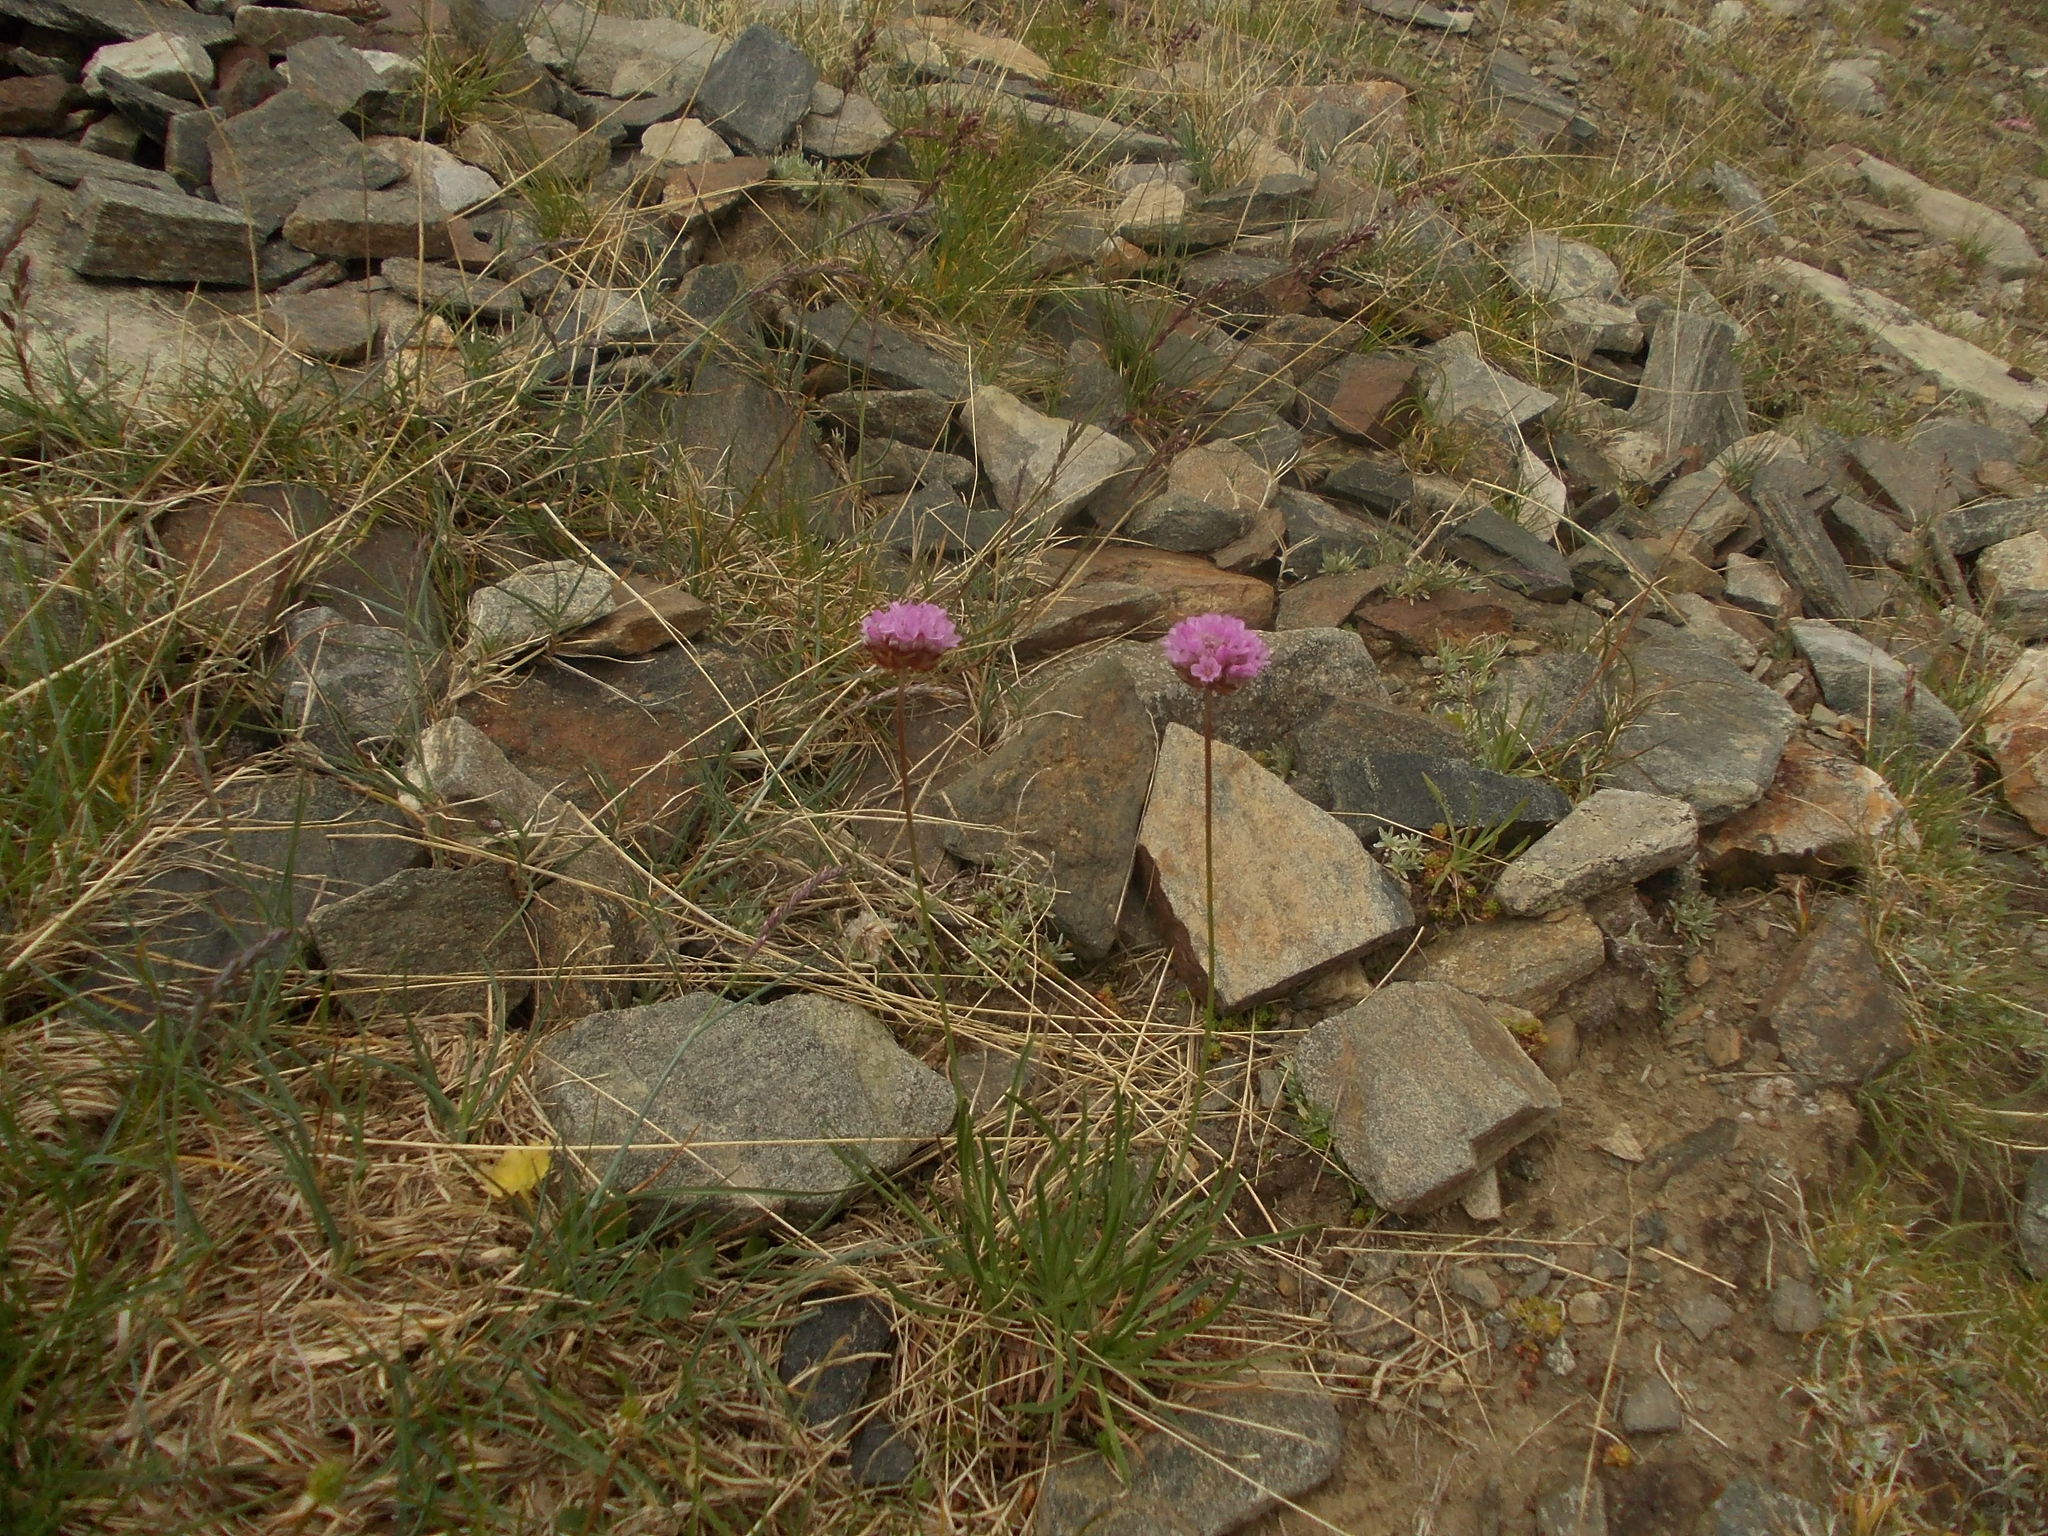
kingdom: Plantae
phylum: Tracheophyta
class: Magnoliopsida
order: Caryophyllales
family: Plumbaginaceae
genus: Armeria
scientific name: Armeria alpina
